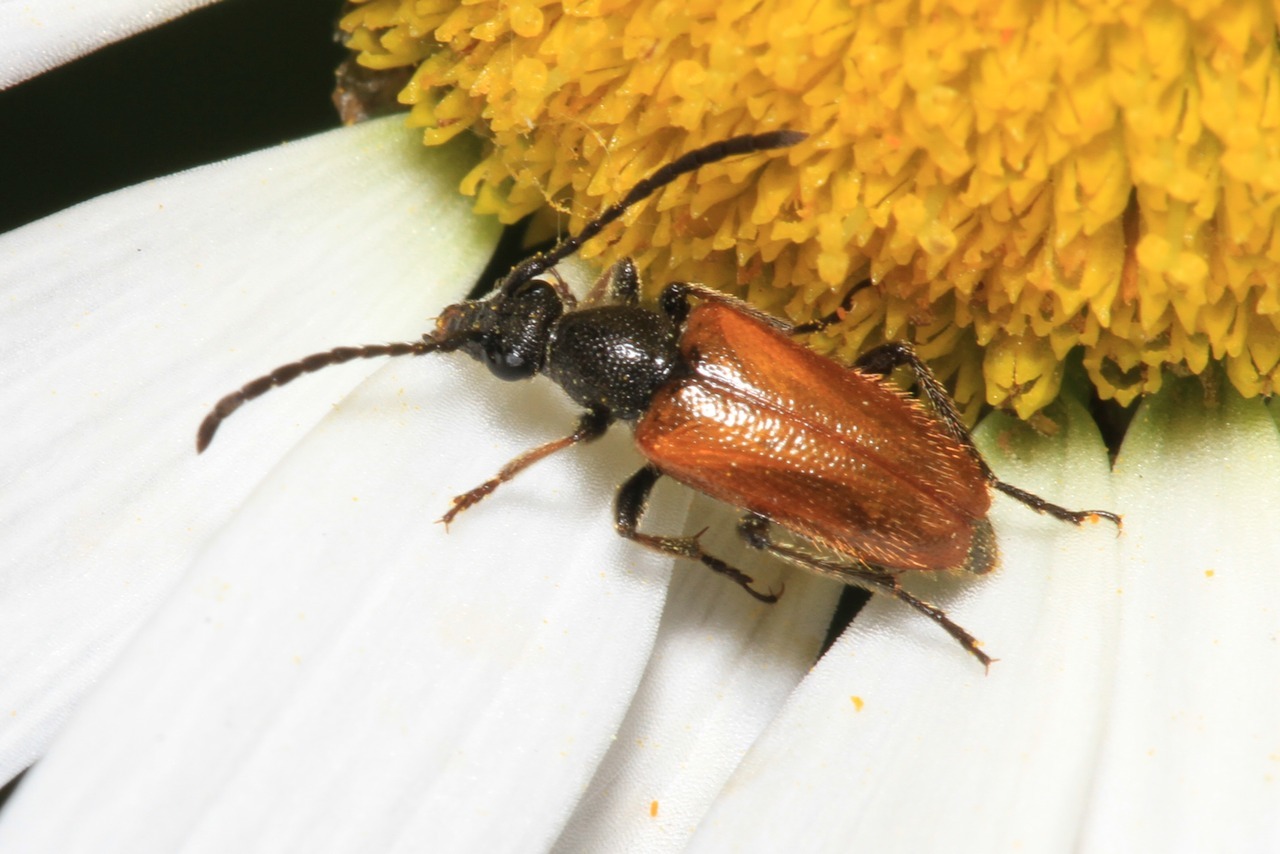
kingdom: Animalia
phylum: Arthropoda
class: Insecta
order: Coleoptera
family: Cerambycidae
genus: Pseudovadonia
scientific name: Pseudovadonia livida
